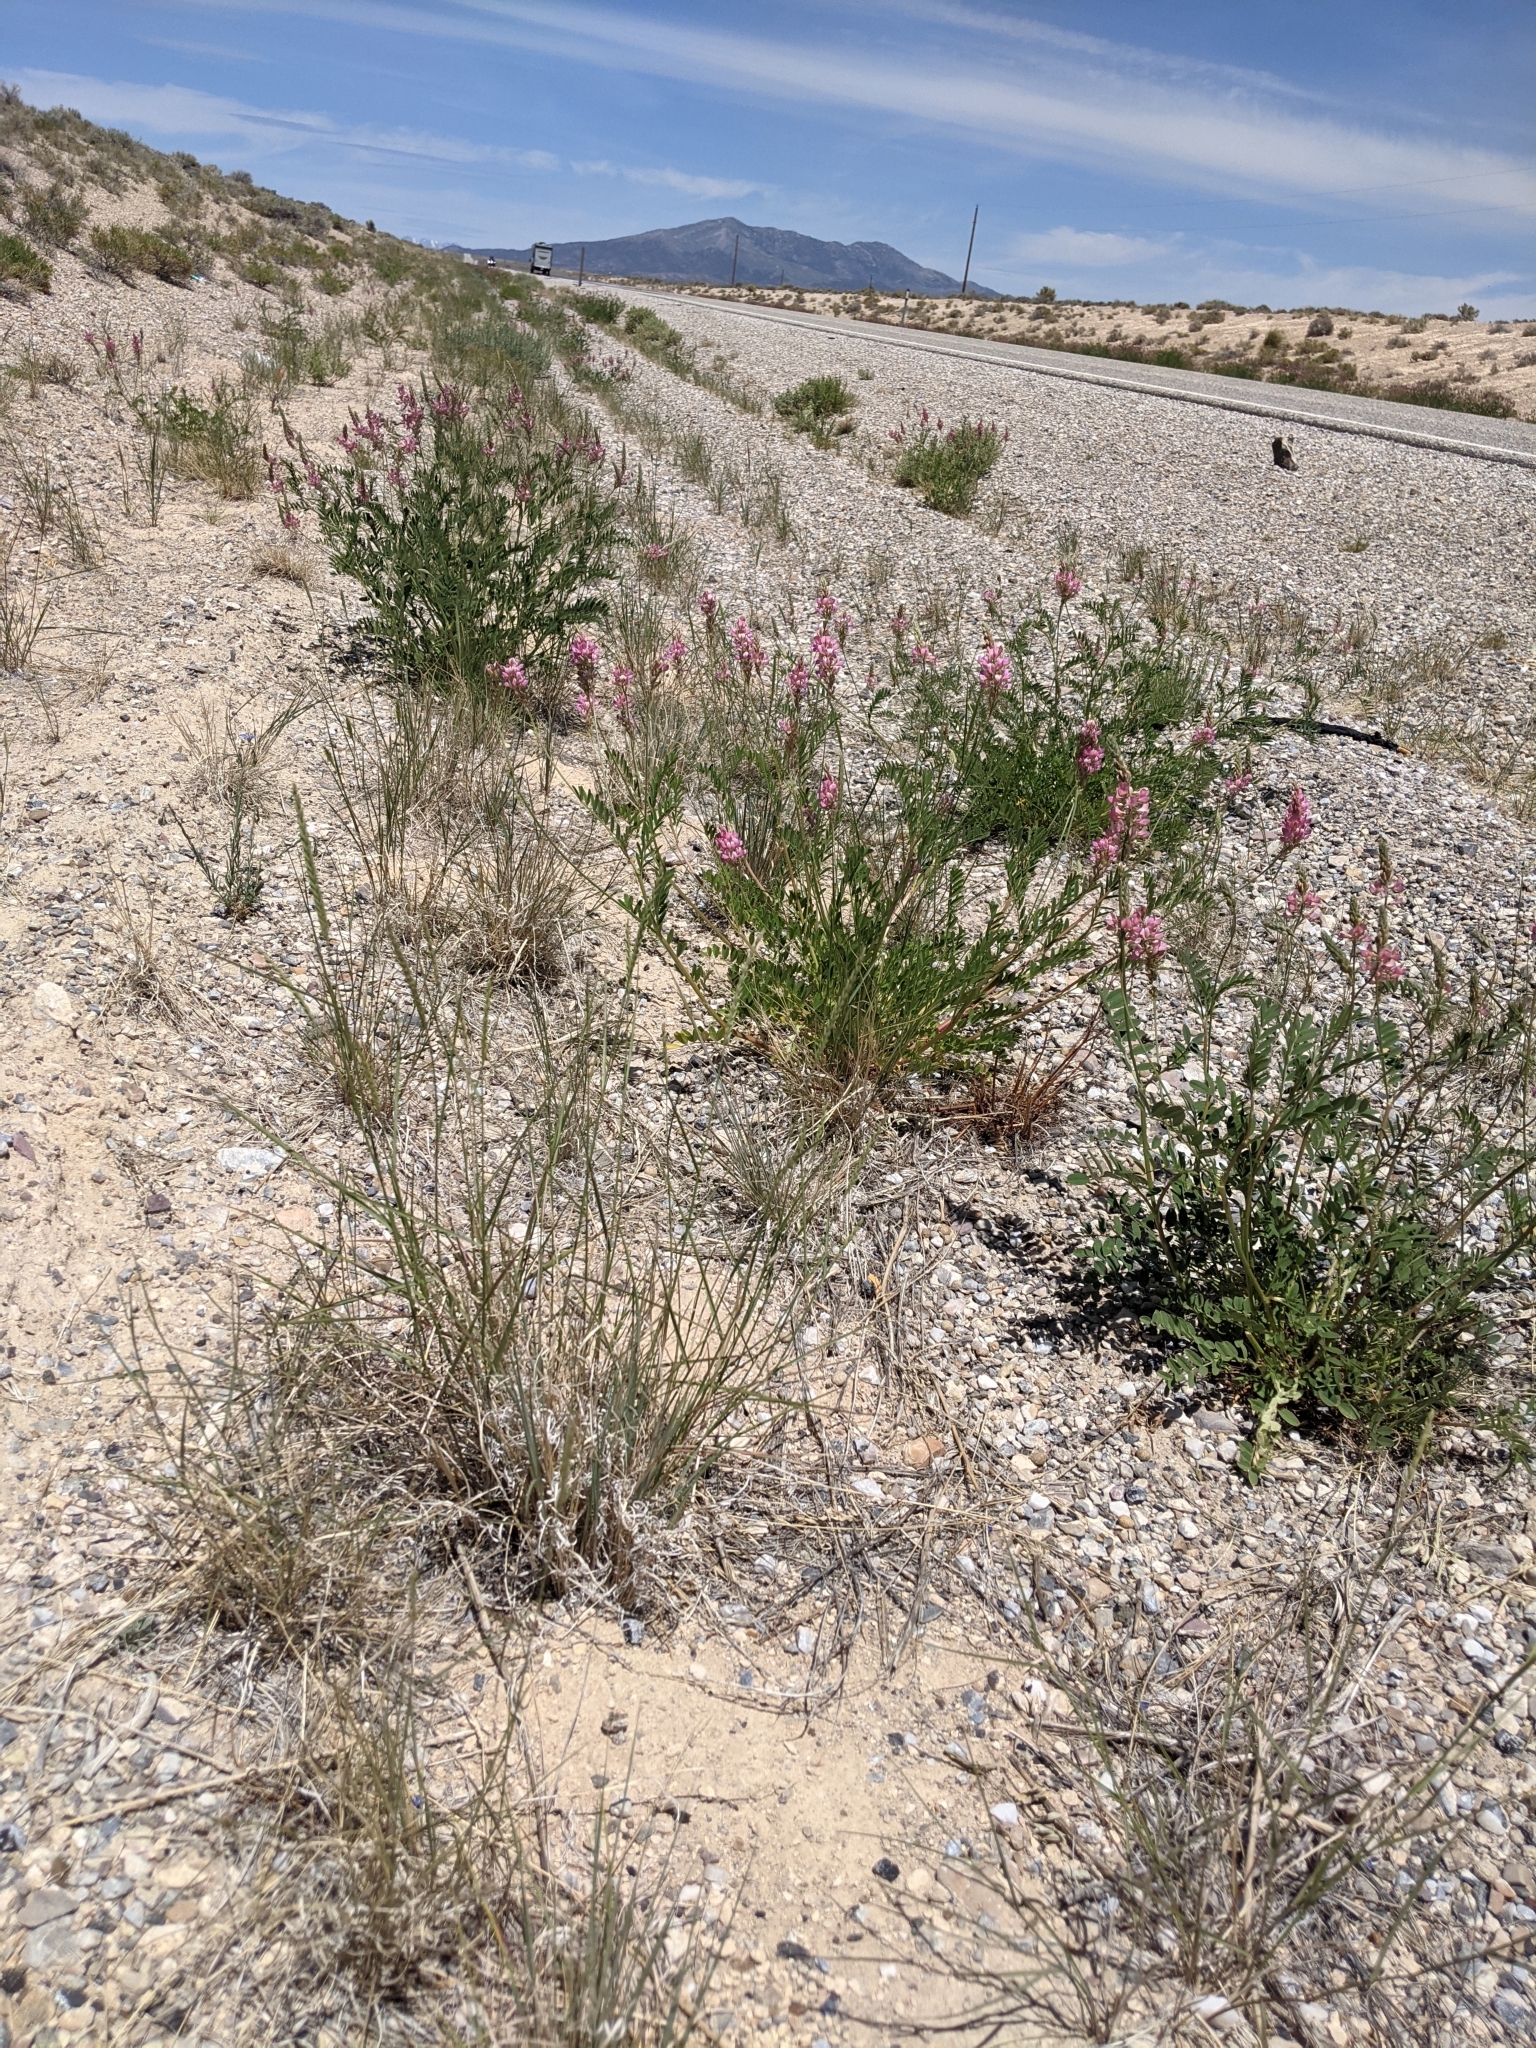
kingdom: Plantae
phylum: Tracheophyta
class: Magnoliopsida
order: Fabales
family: Fabaceae
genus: Onobrychis
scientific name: Onobrychis viciifolia
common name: Sainfoin
